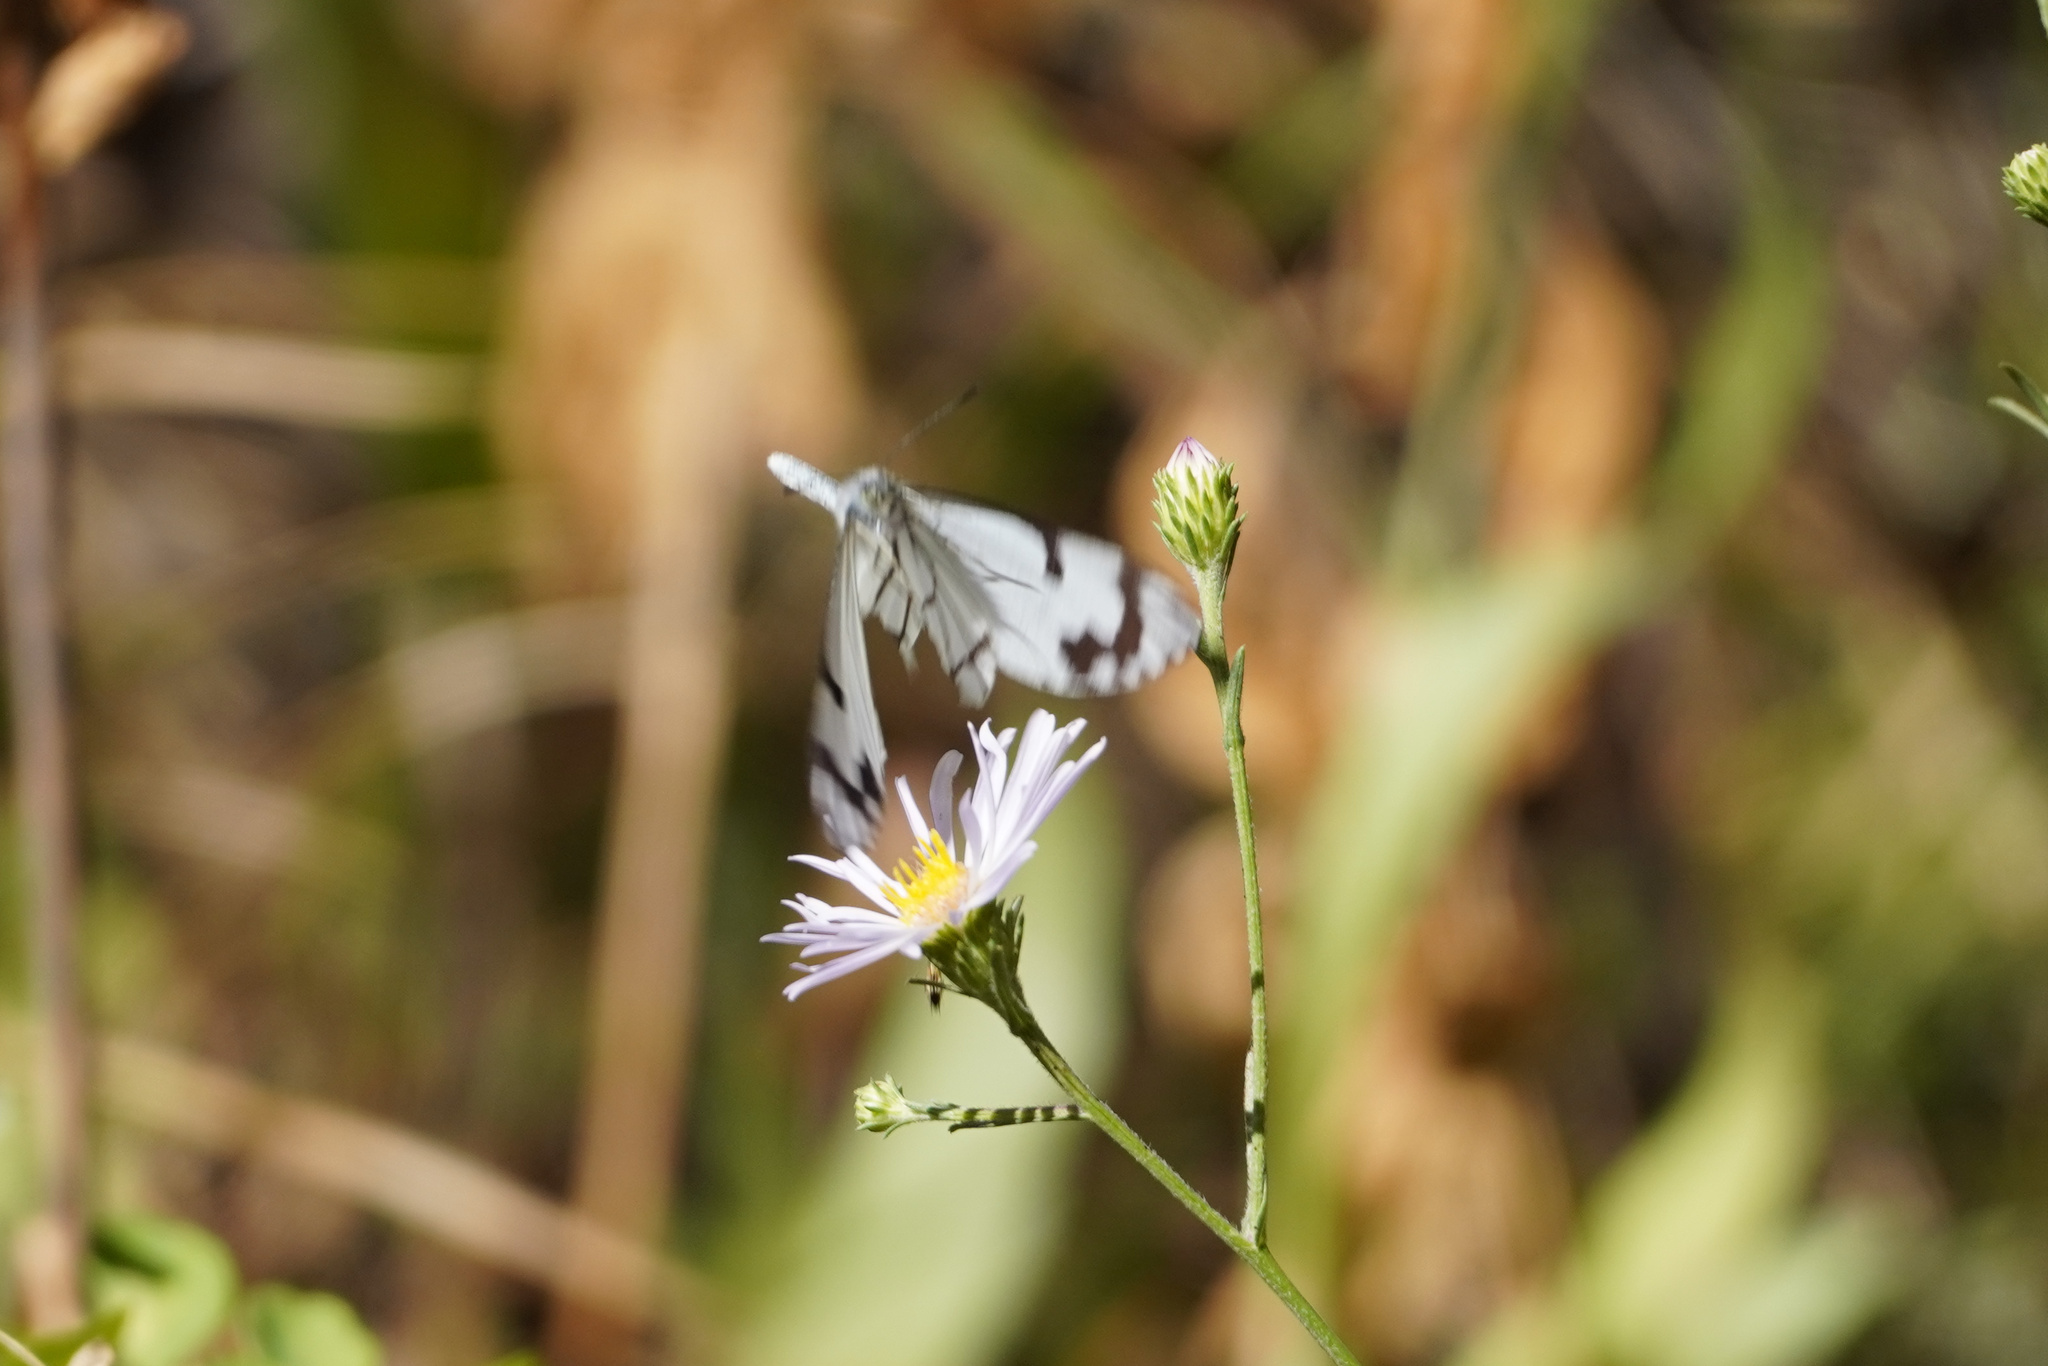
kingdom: Animalia
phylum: Arthropoda
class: Insecta
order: Lepidoptera
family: Pieridae
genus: Neophasia
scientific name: Neophasia menapia
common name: Pine white
